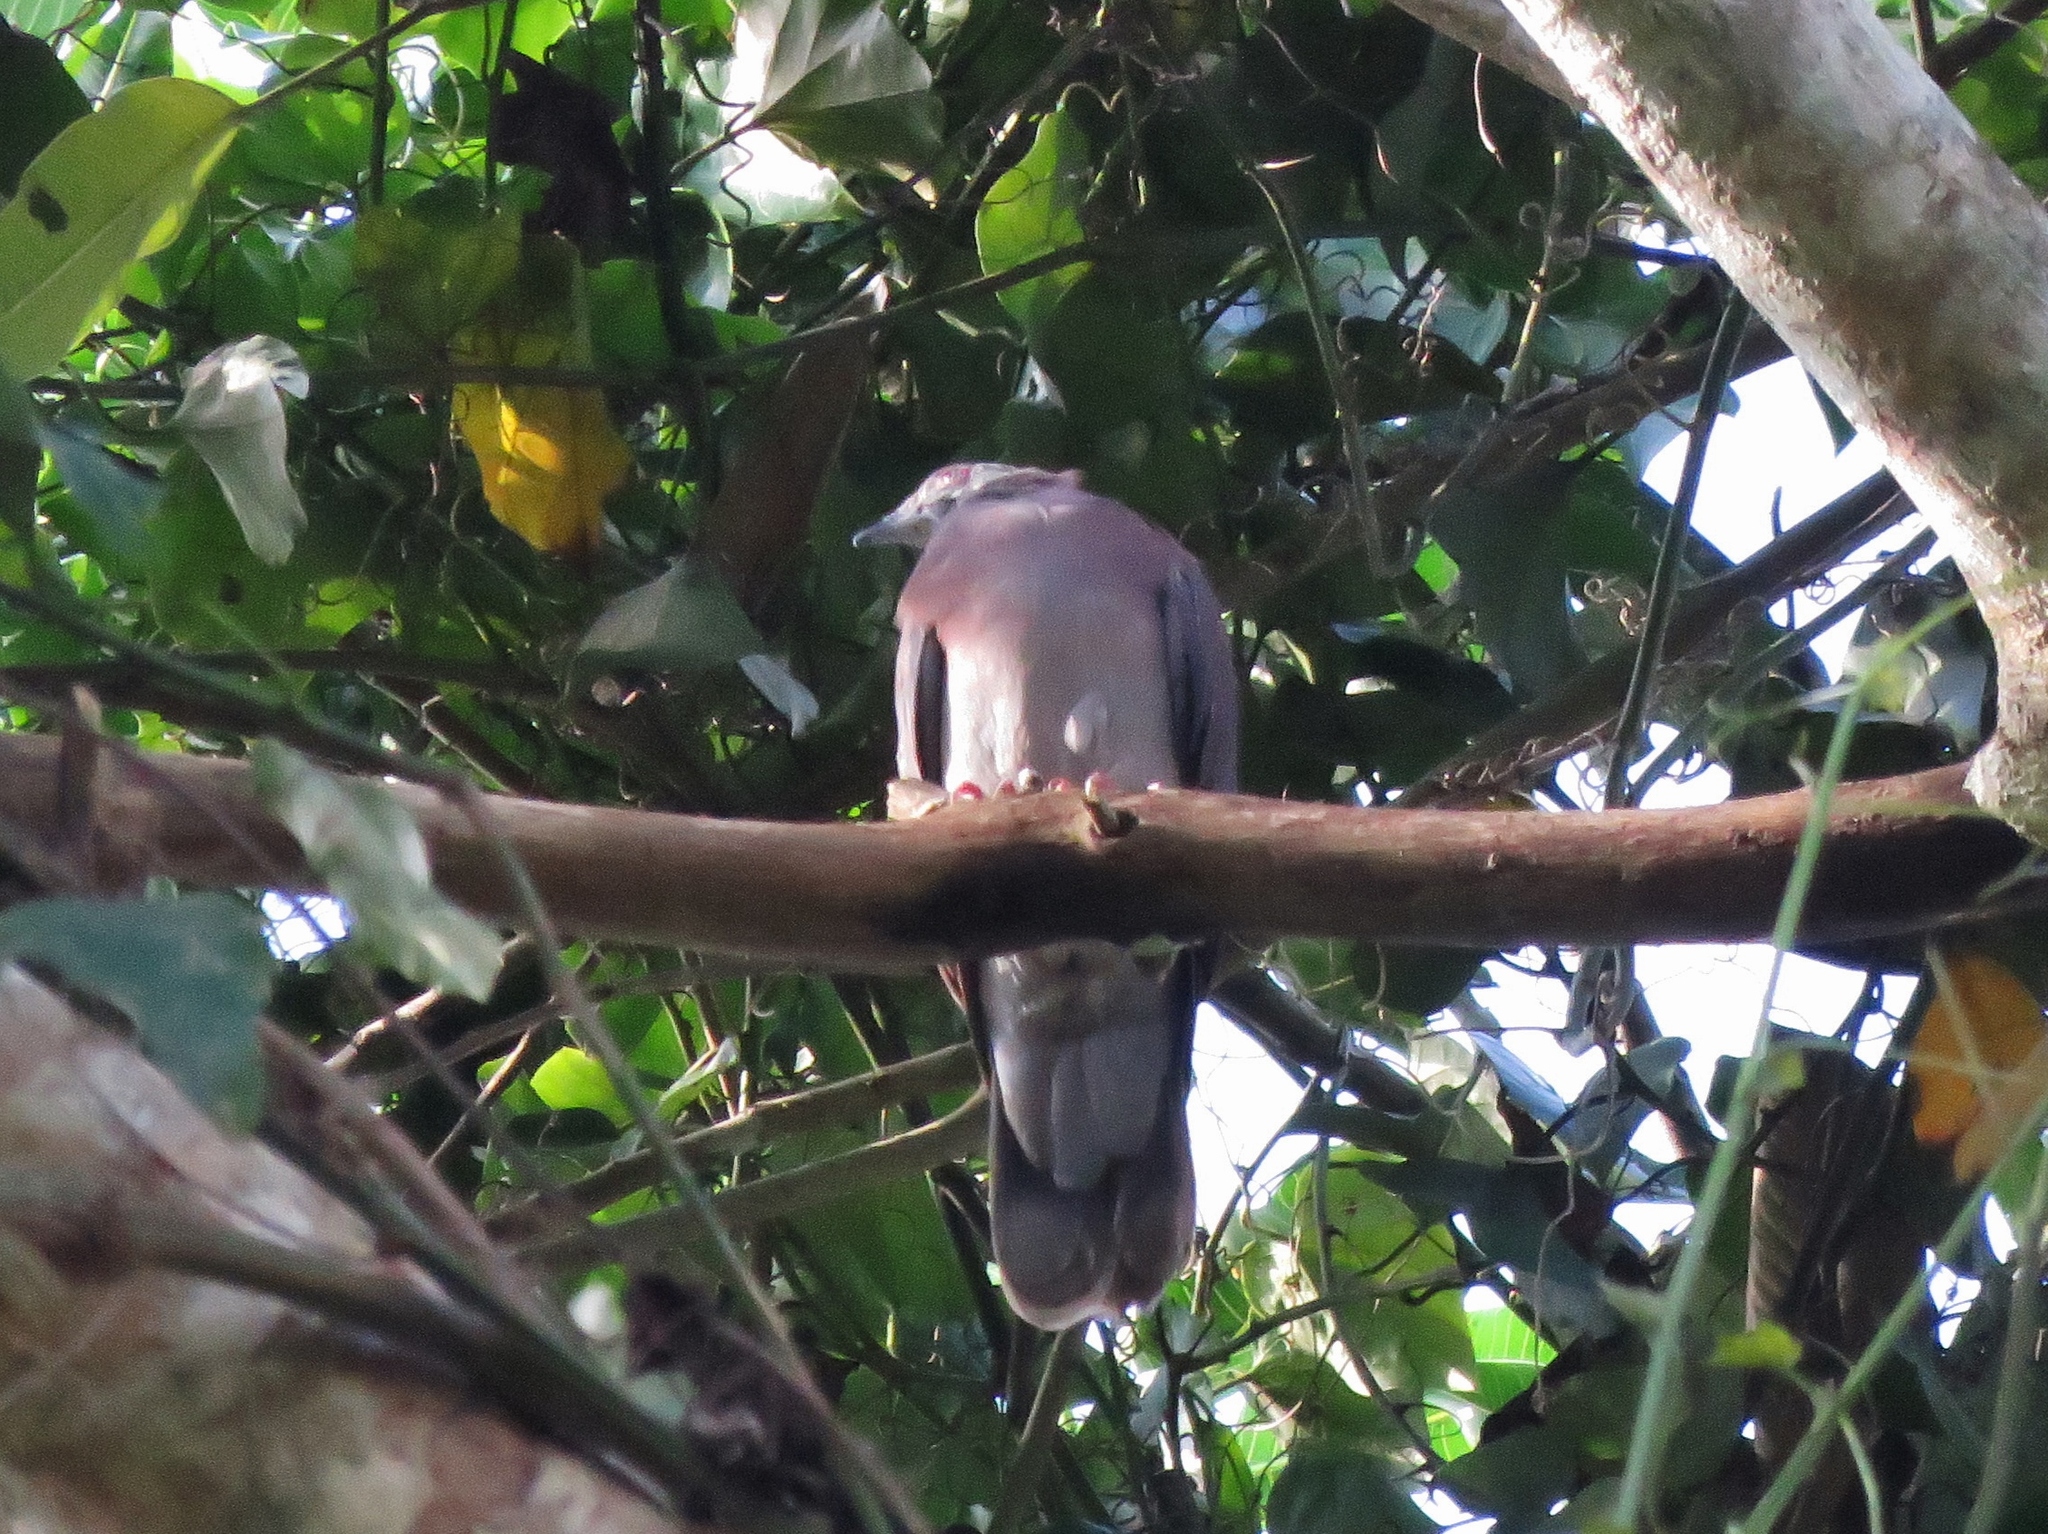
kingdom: Animalia
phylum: Chordata
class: Aves
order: Columbiformes
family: Columbidae
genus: Patagioenas
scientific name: Patagioenas cayennensis
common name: Pale-vented pigeon
